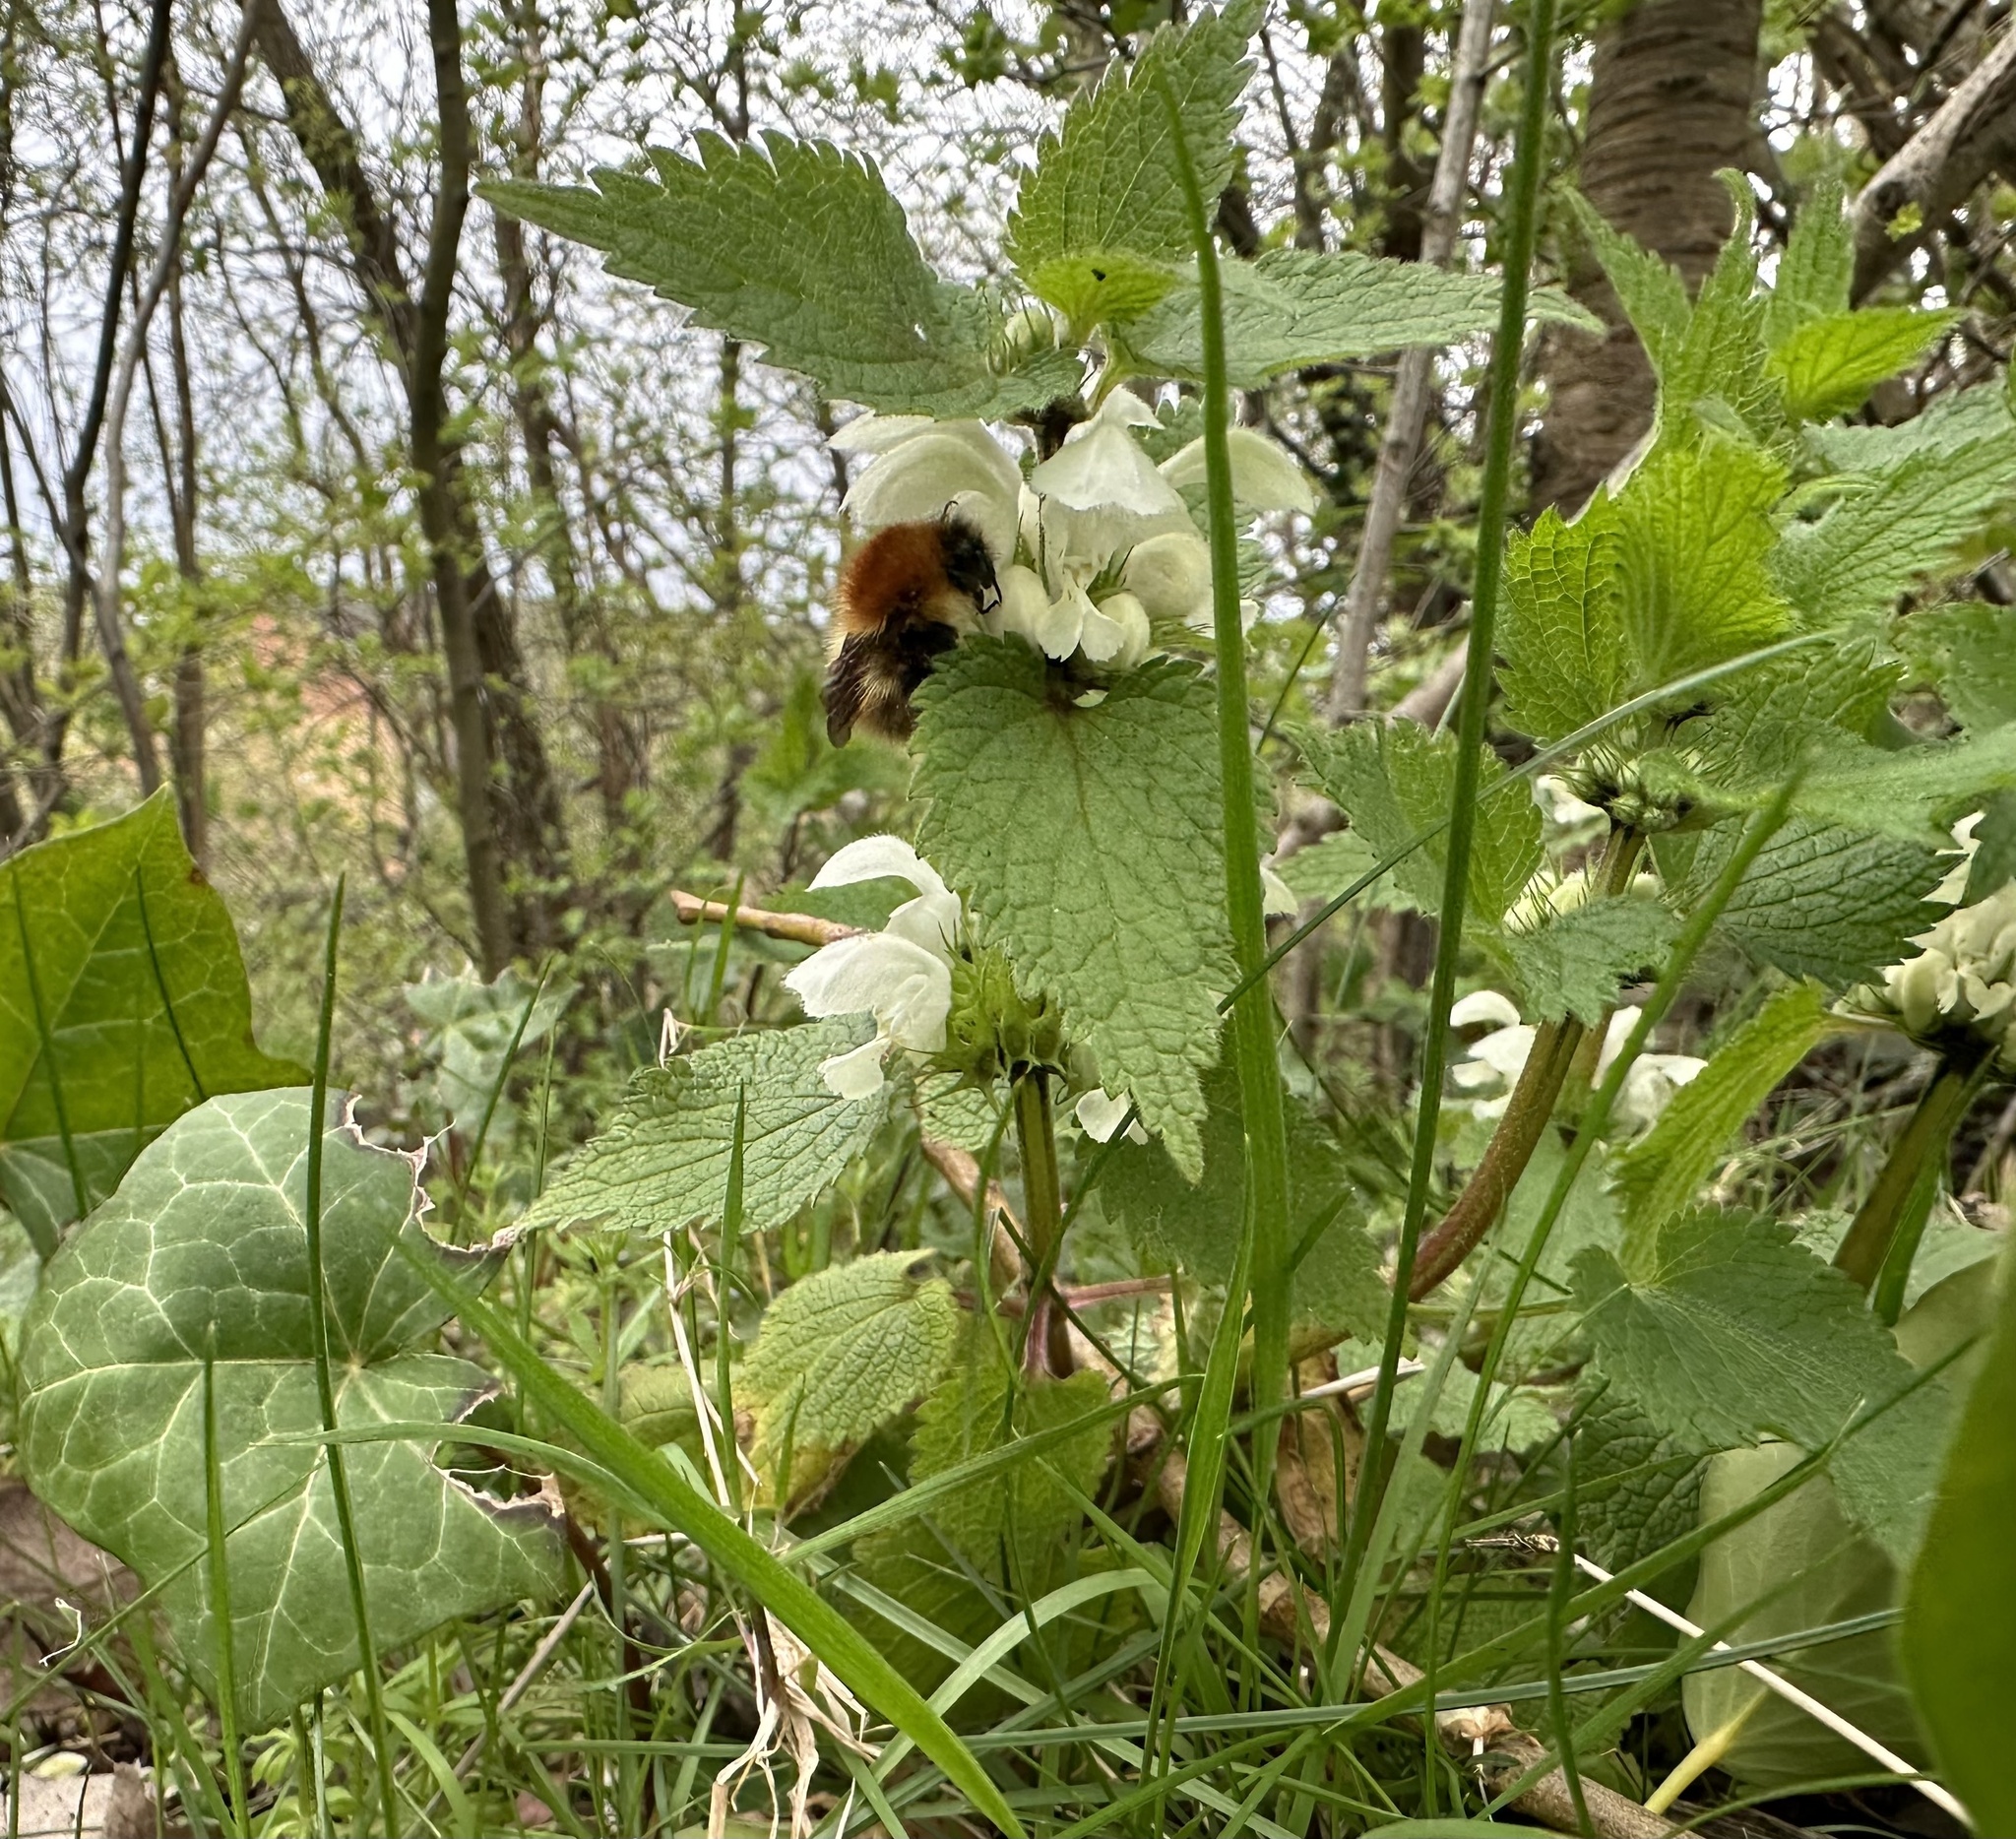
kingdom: Plantae
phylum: Tracheophyta
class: Magnoliopsida
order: Lamiales
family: Lamiaceae
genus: Lamium
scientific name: Lamium album
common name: White dead-nettle
